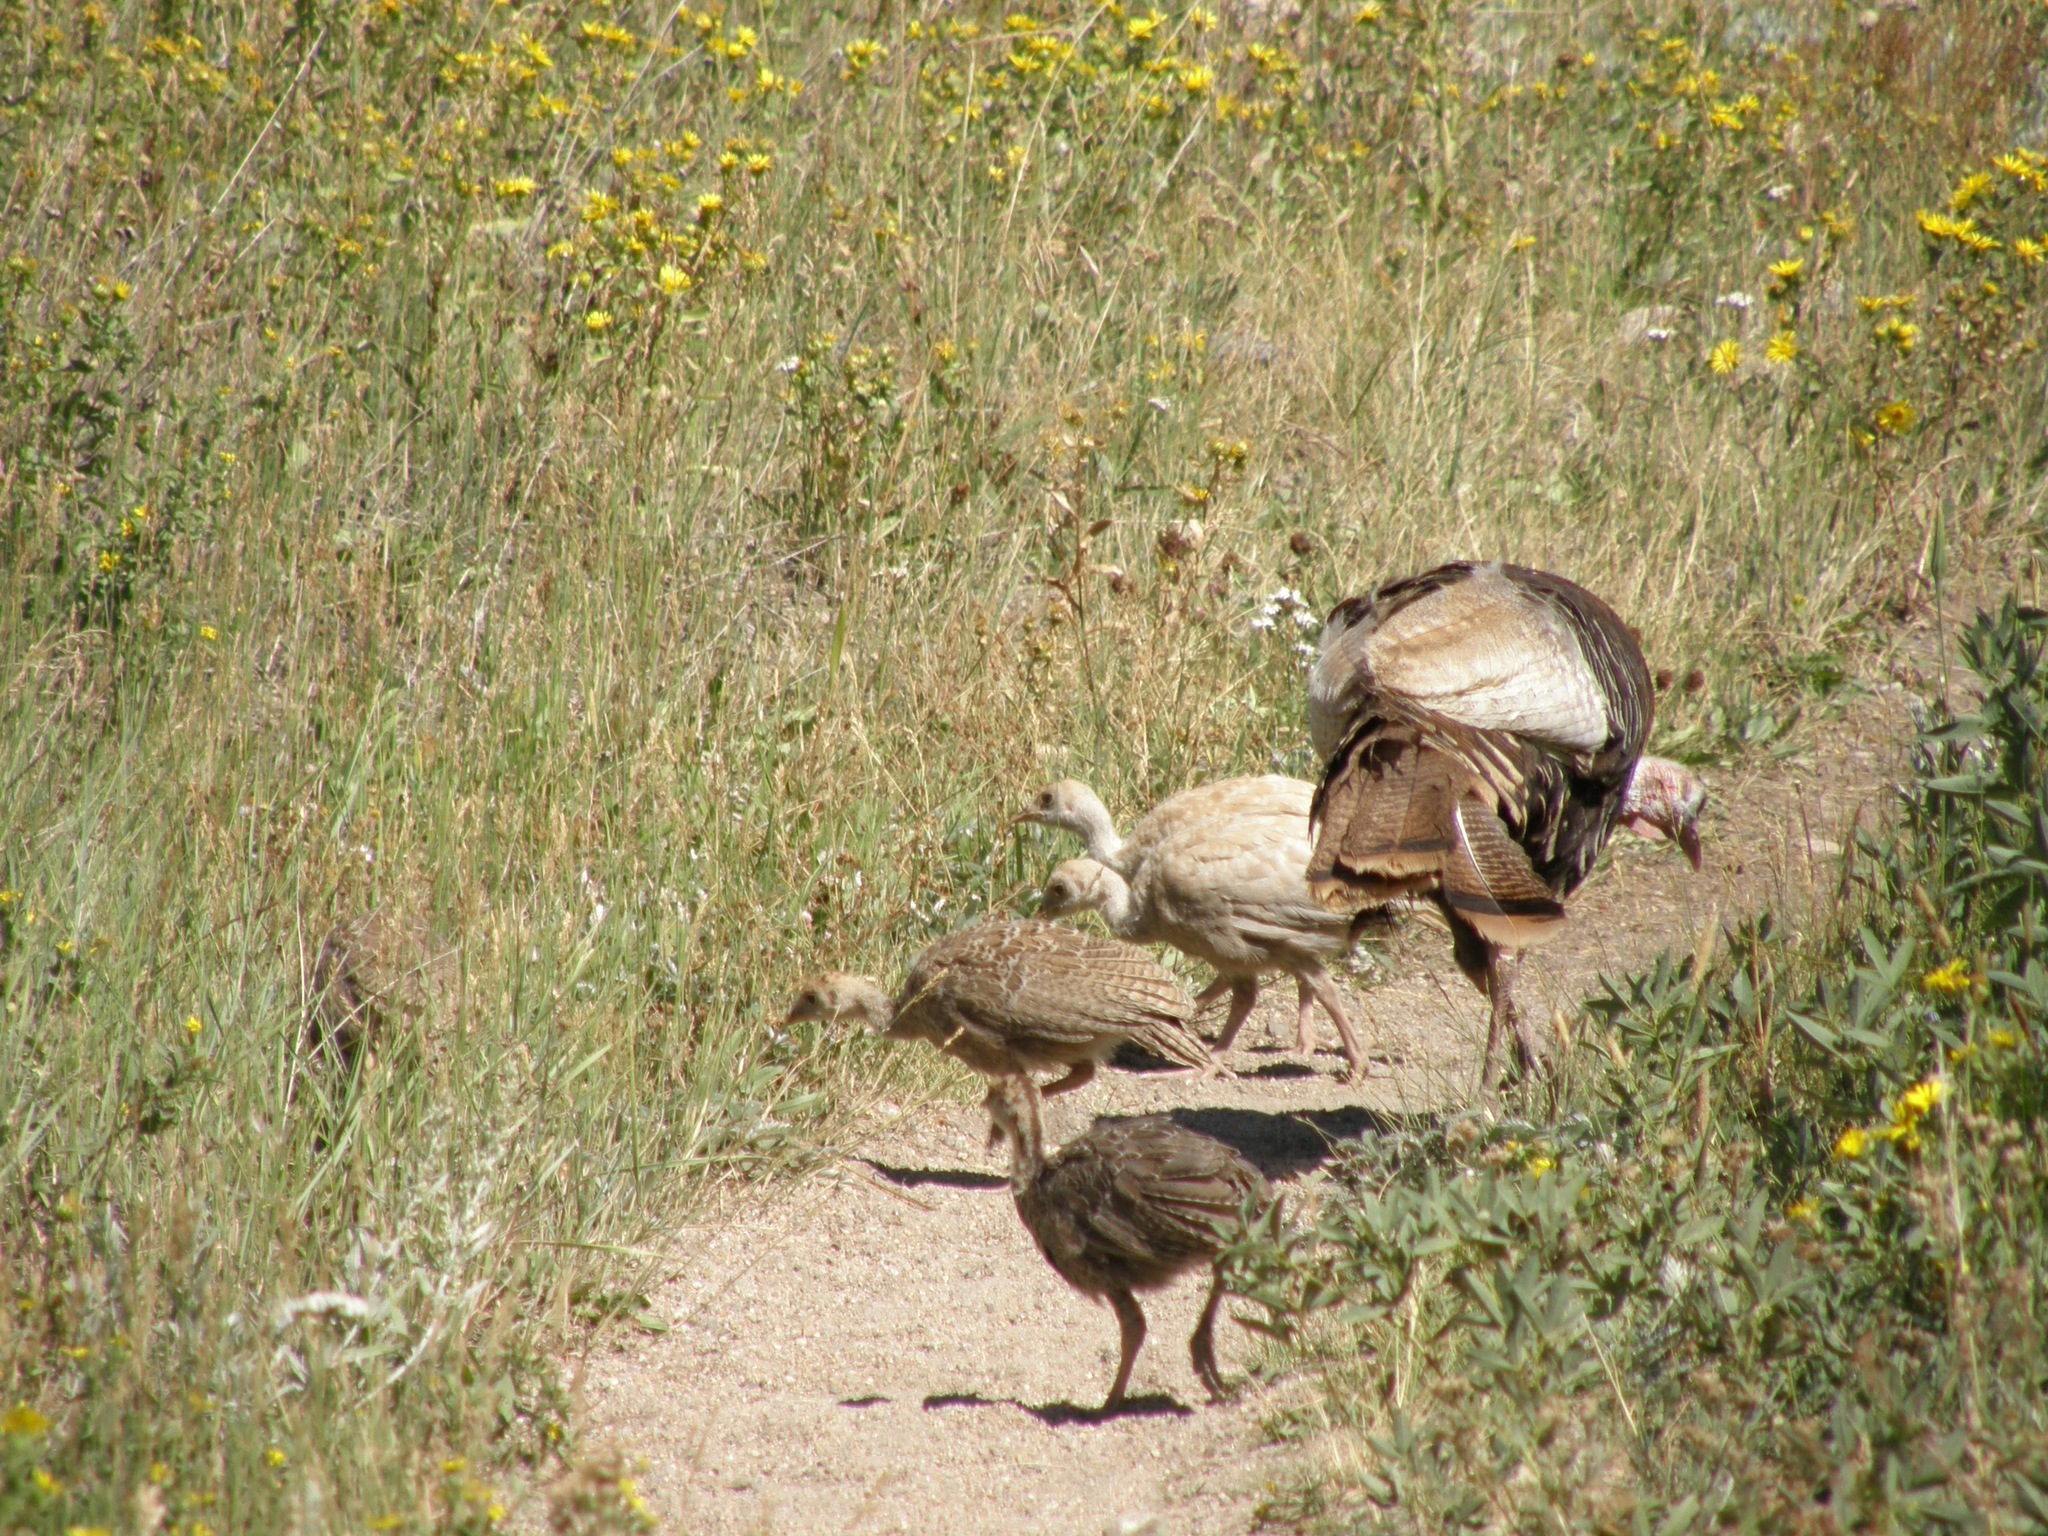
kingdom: Animalia
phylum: Chordata
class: Aves
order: Galliformes
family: Phasianidae
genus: Meleagris
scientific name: Meleagris gallopavo
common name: Wild turkey
